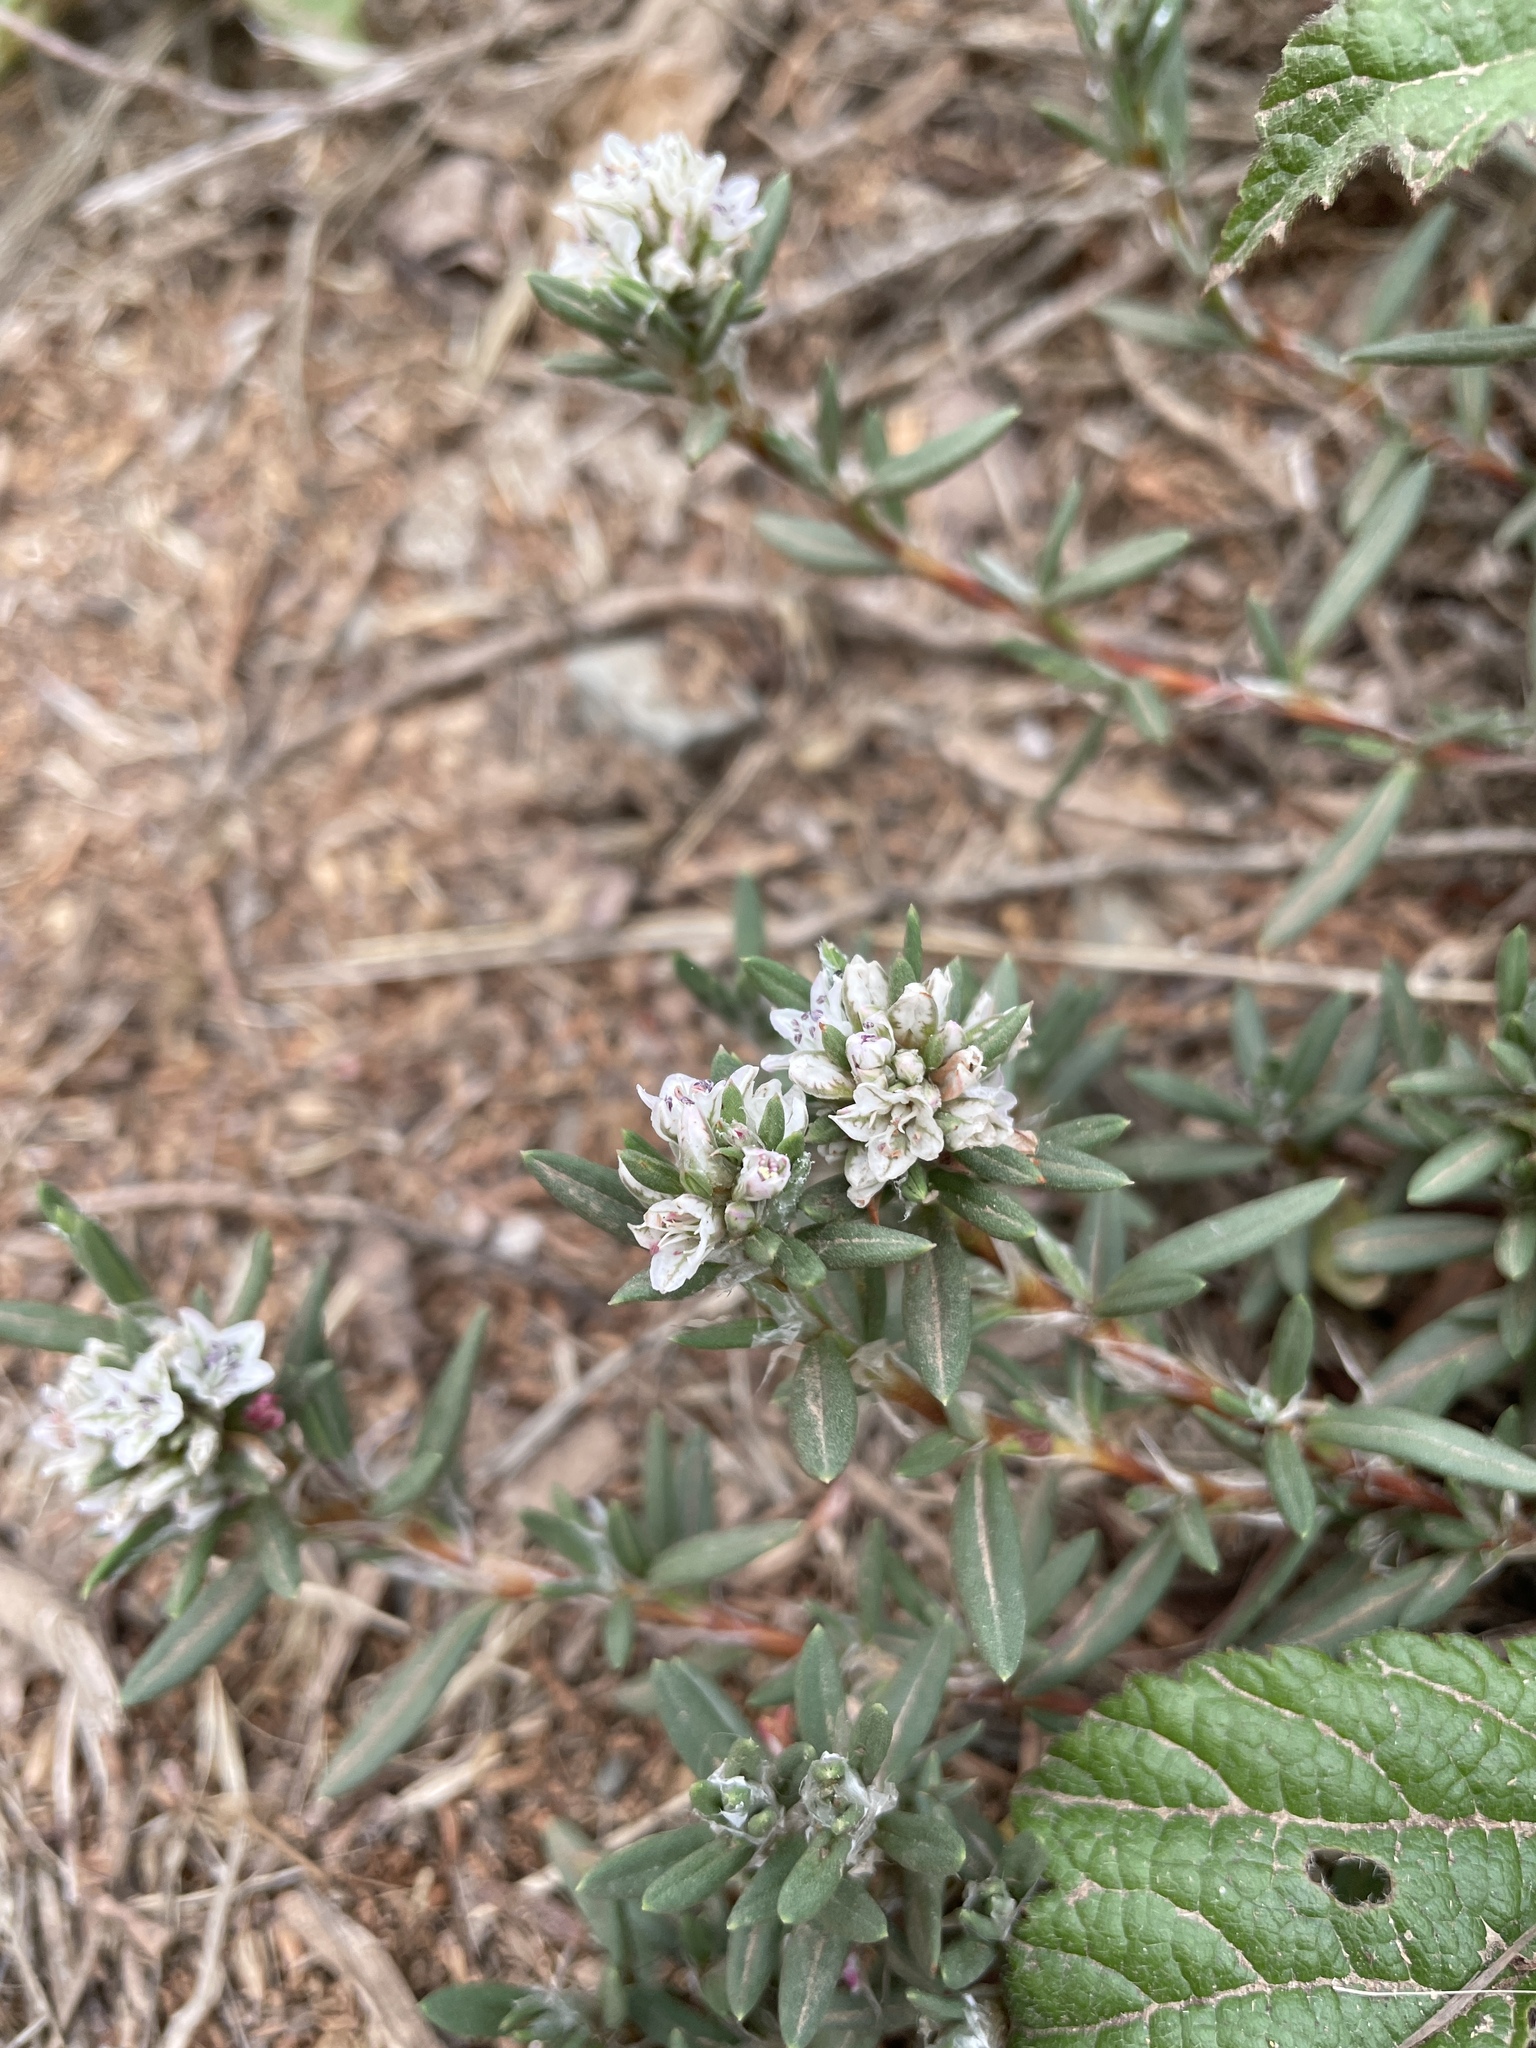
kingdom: Plantae
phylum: Tracheophyta
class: Magnoliopsida
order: Caryophyllales
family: Polygonaceae
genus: Polygonum
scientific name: Polygonum paronychia
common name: Dune knotweed
